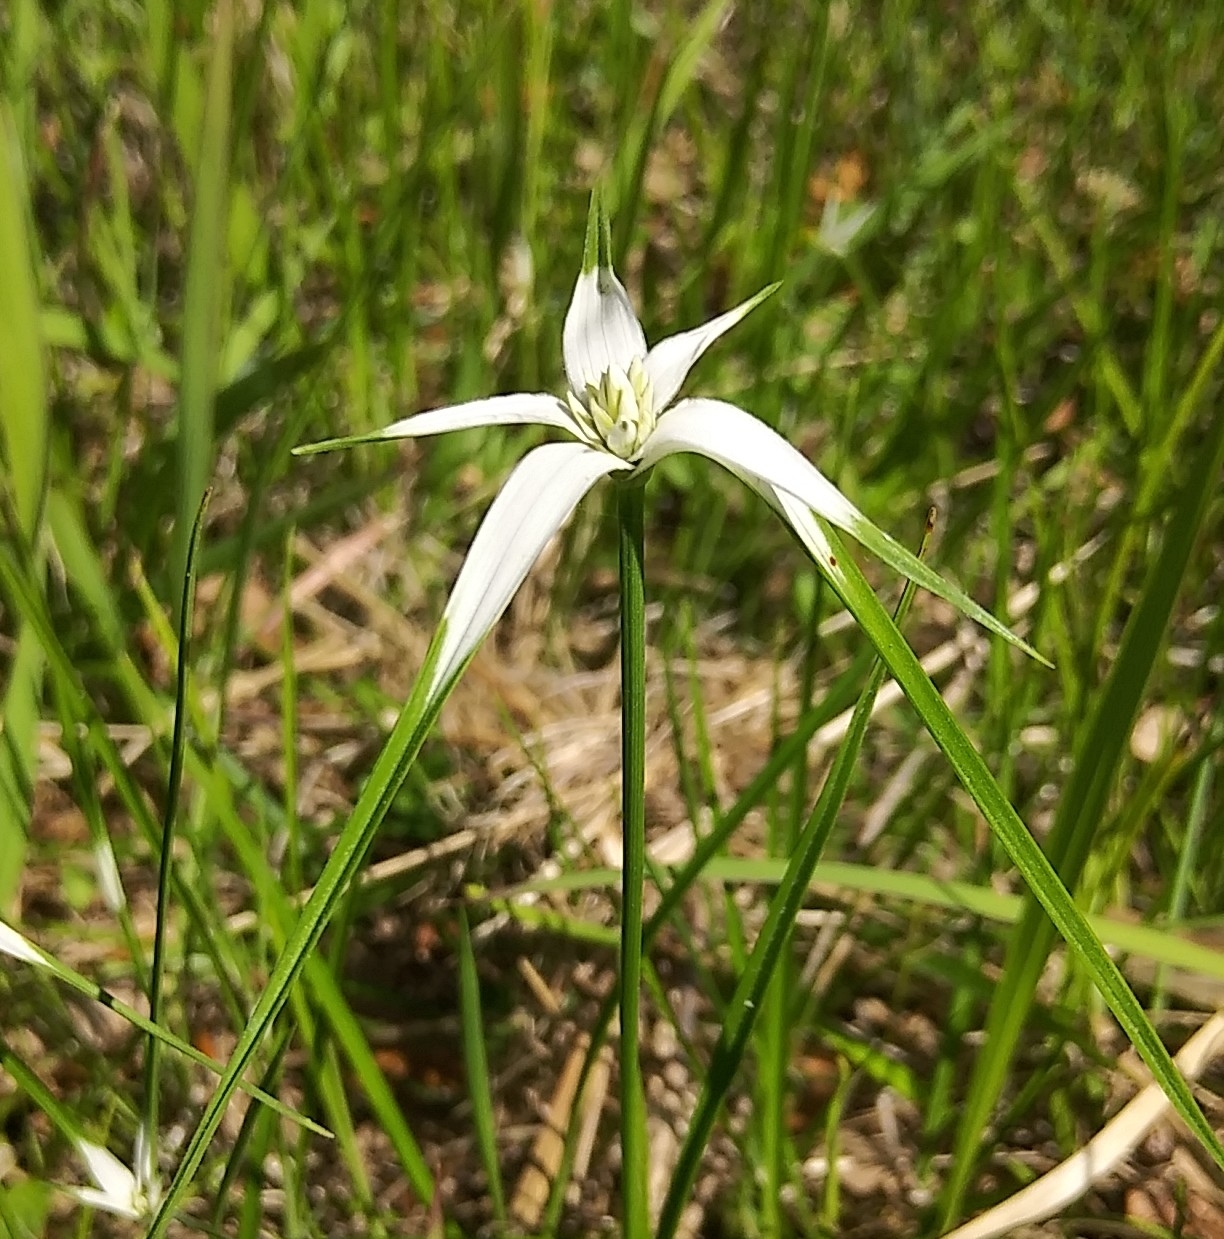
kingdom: Plantae
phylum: Tracheophyta
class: Liliopsida
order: Poales
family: Cyperaceae
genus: Rhynchospora
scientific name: Rhynchospora colorata
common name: Star sedge
